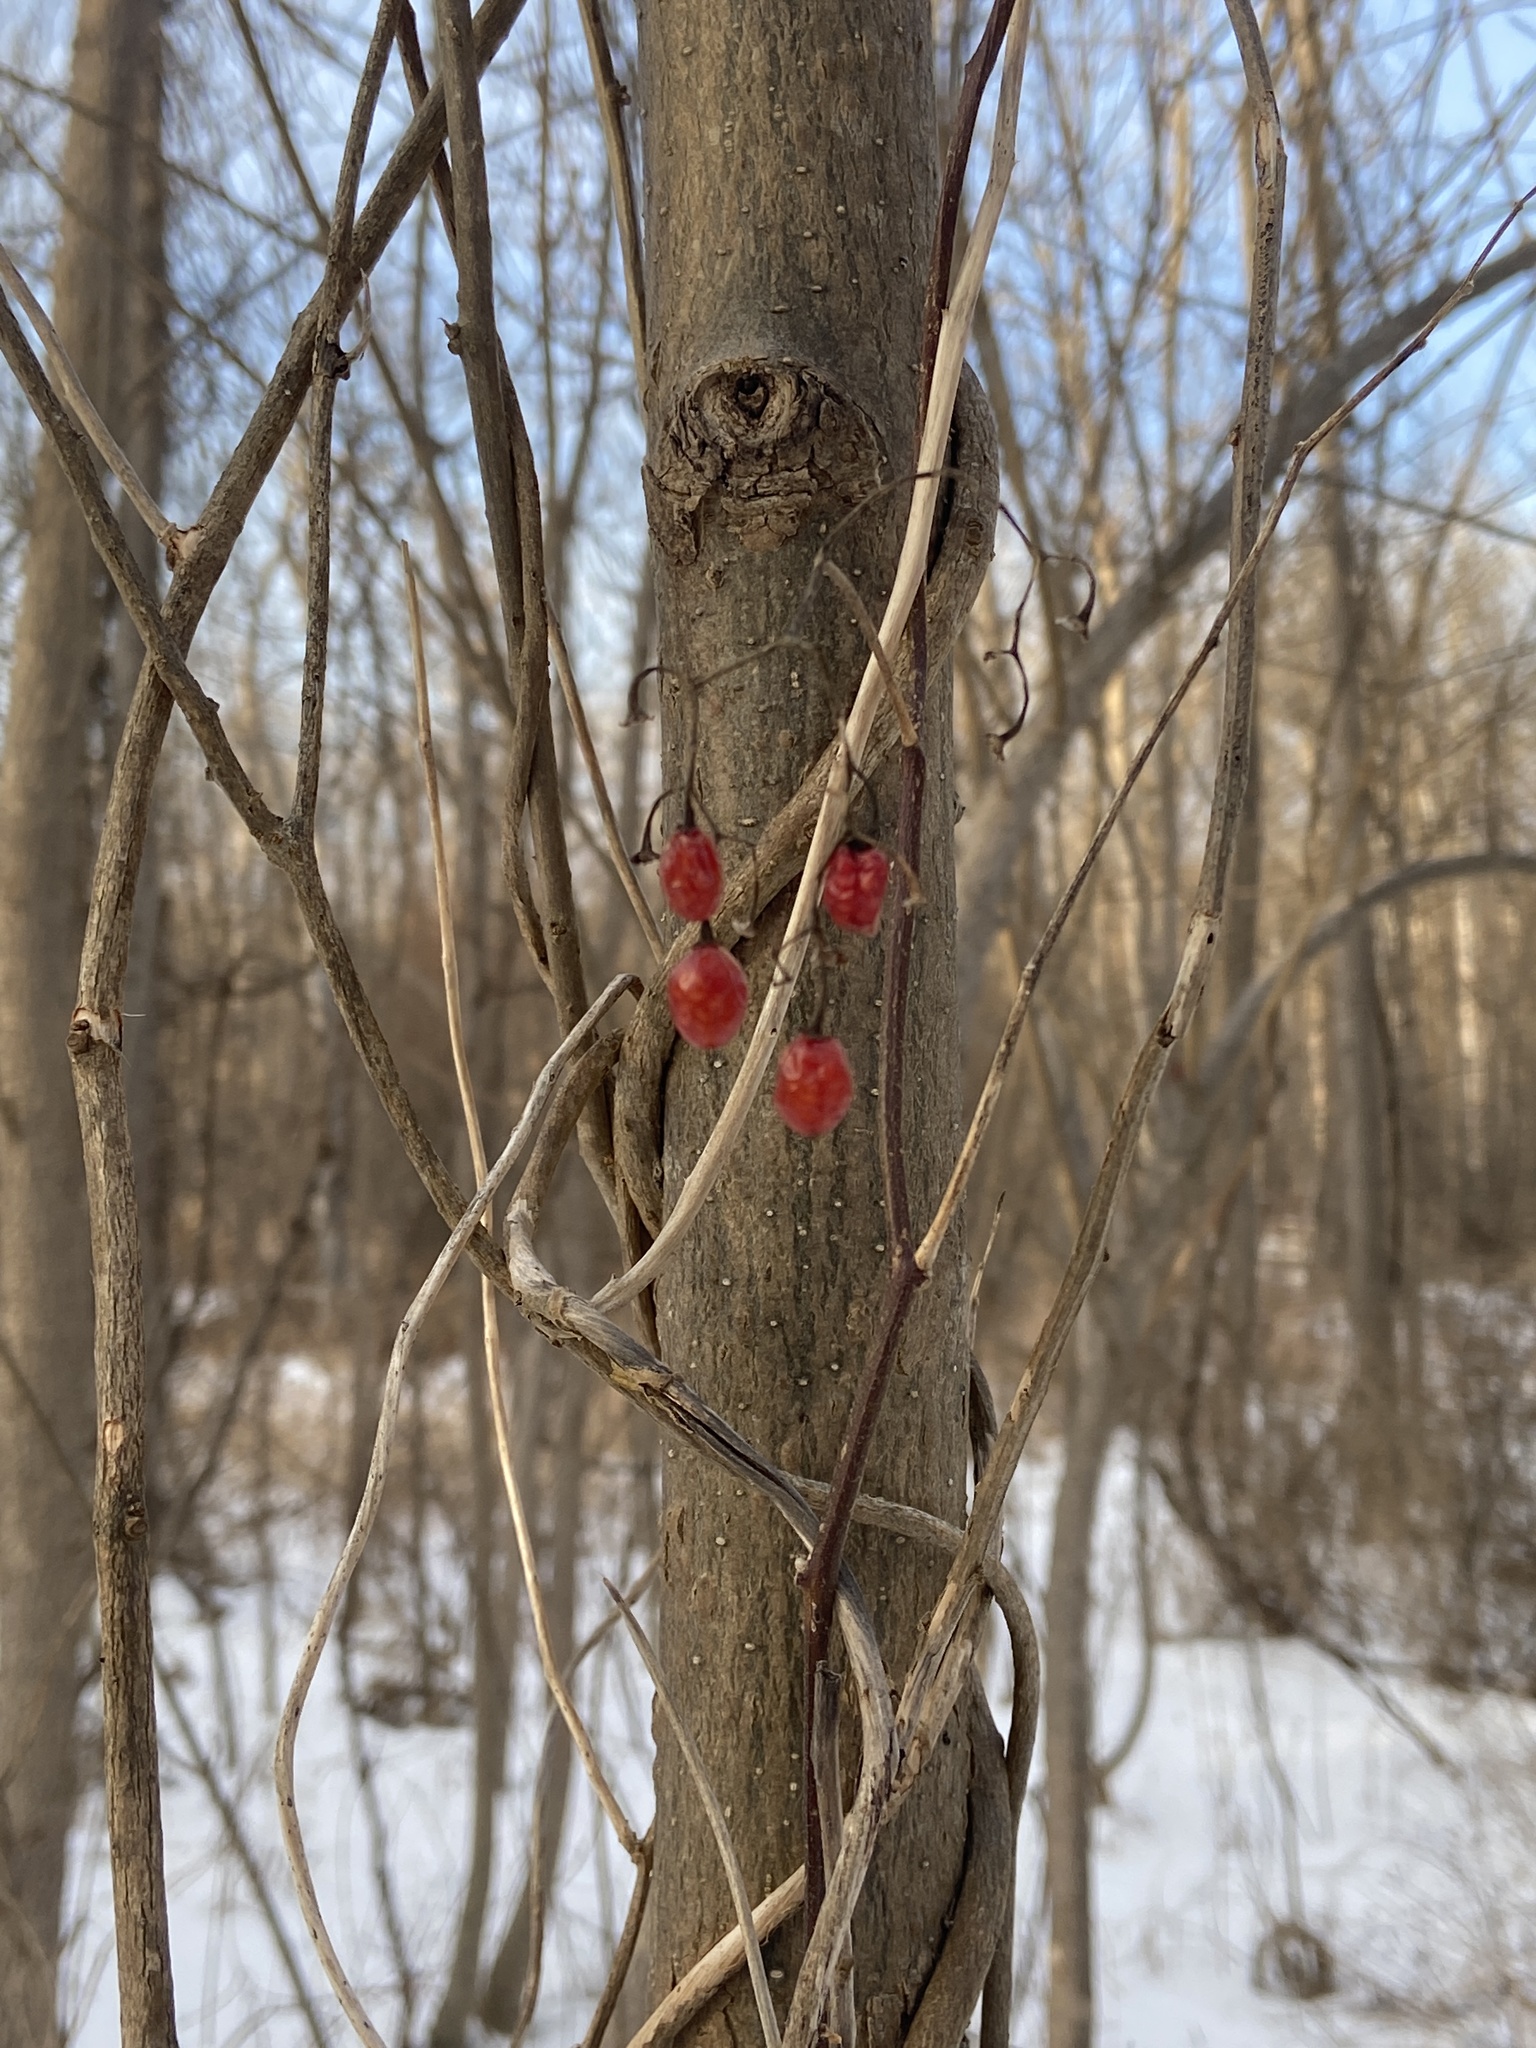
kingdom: Plantae
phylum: Tracheophyta
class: Magnoliopsida
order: Solanales
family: Solanaceae
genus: Solanum
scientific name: Solanum dulcamara
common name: Climbing nightshade
